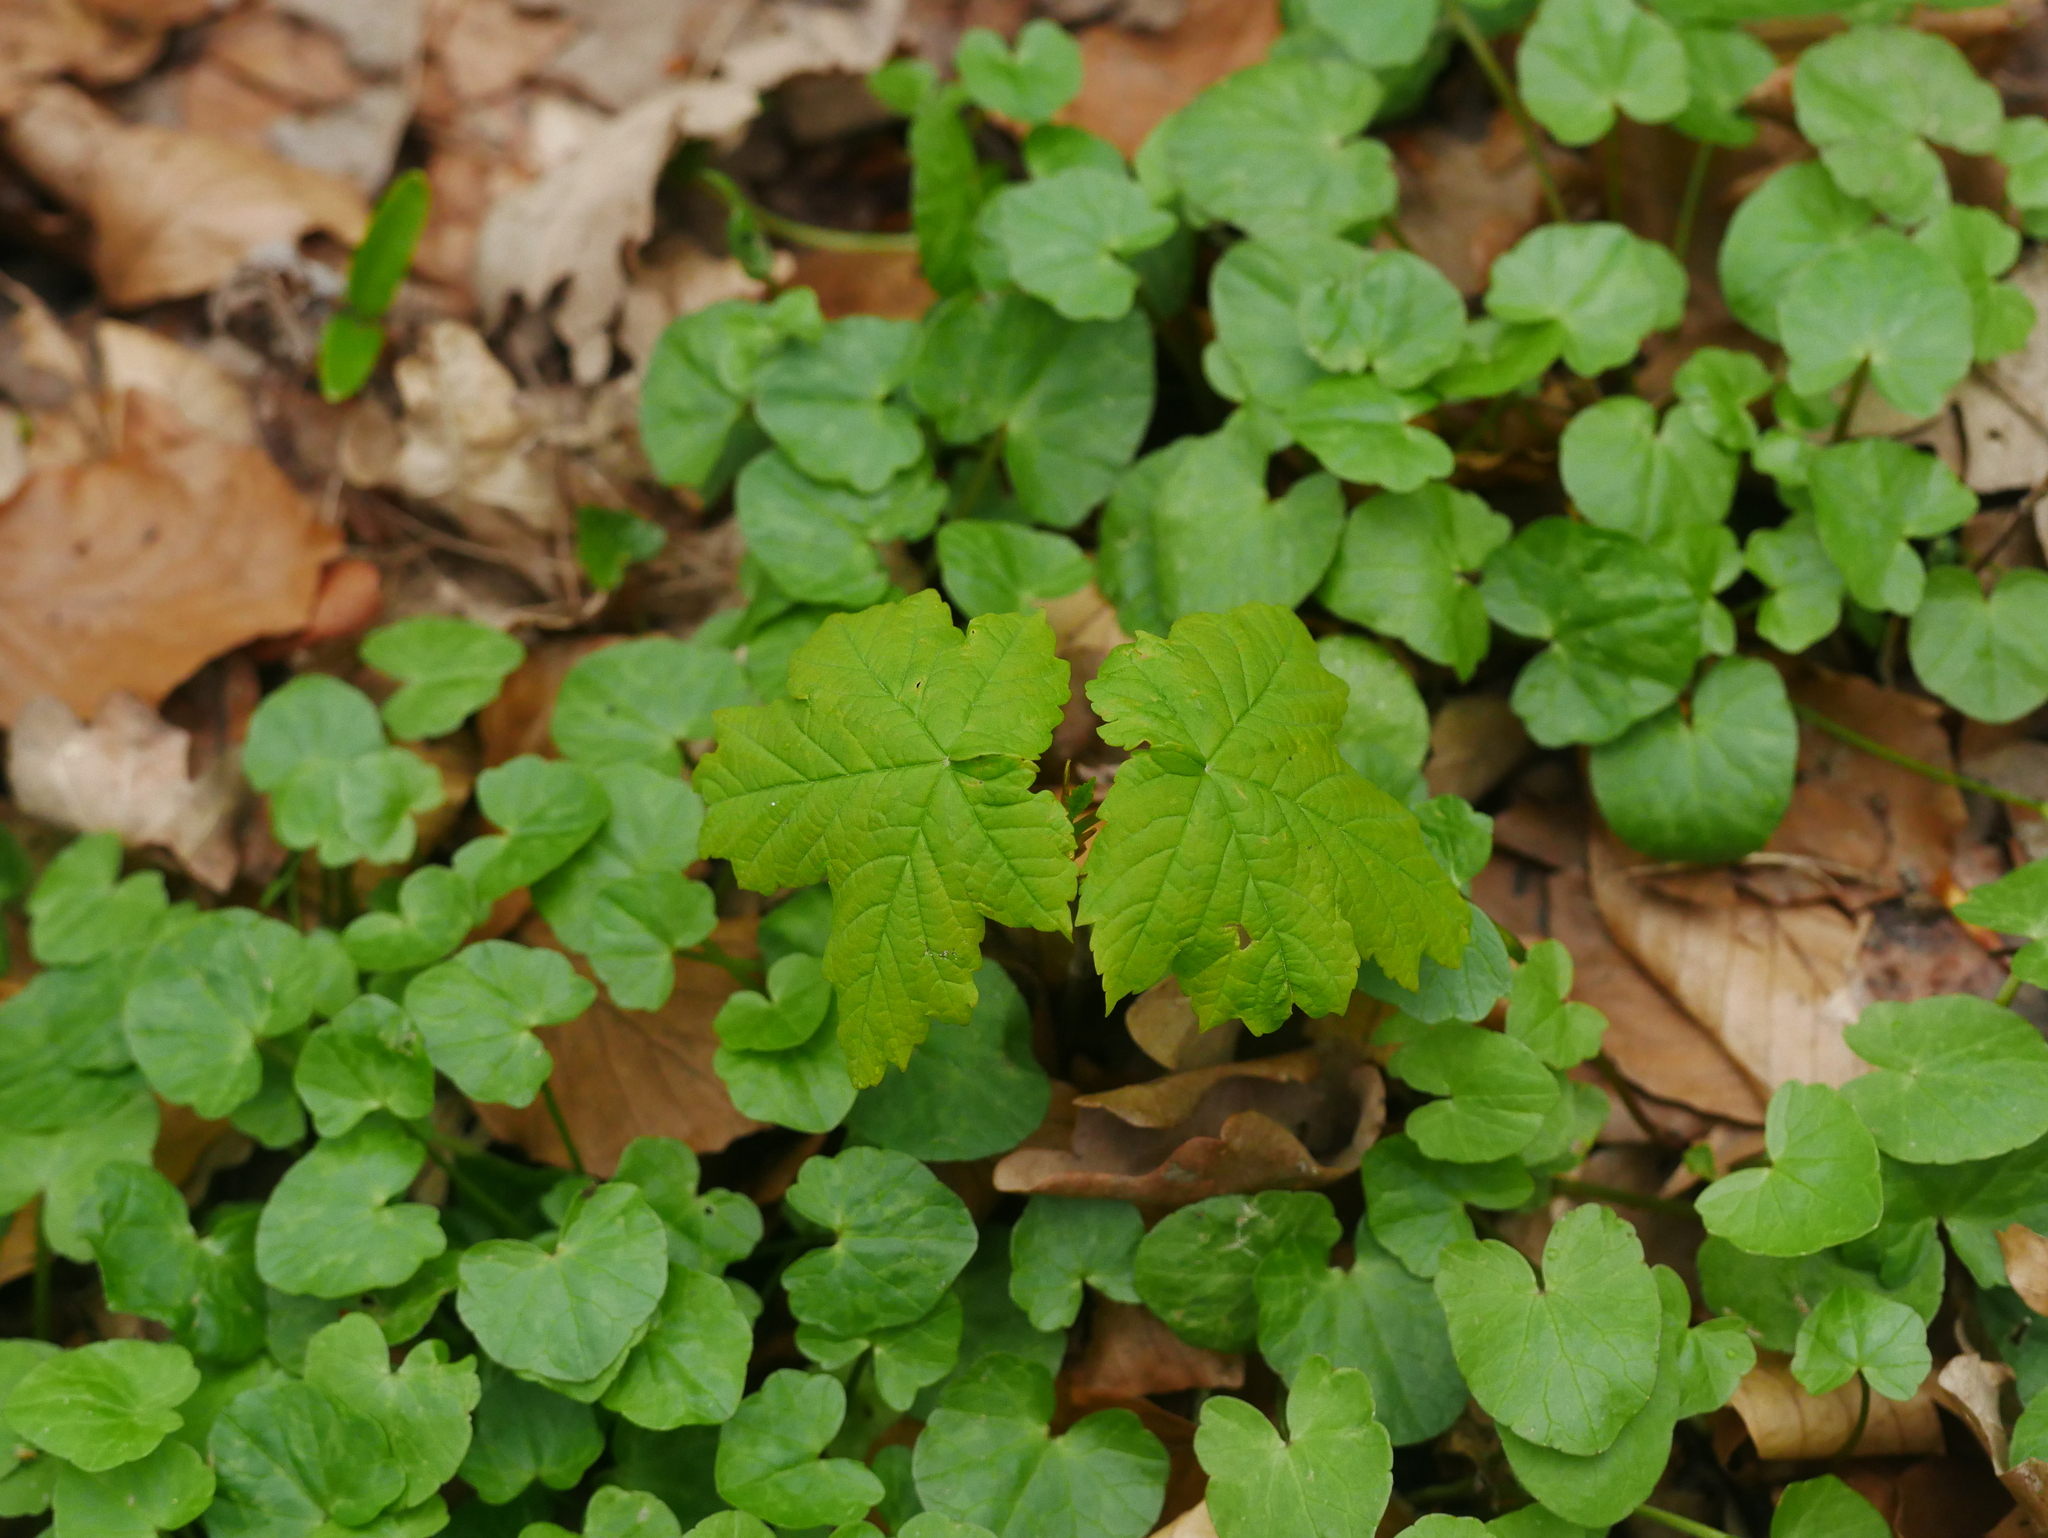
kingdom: Plantae
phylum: Tracheophyta
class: Magnoliopsida
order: Sapindales
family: Sapindaceae
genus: Acer
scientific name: Acer pseudoplatanus
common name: Sycamore
